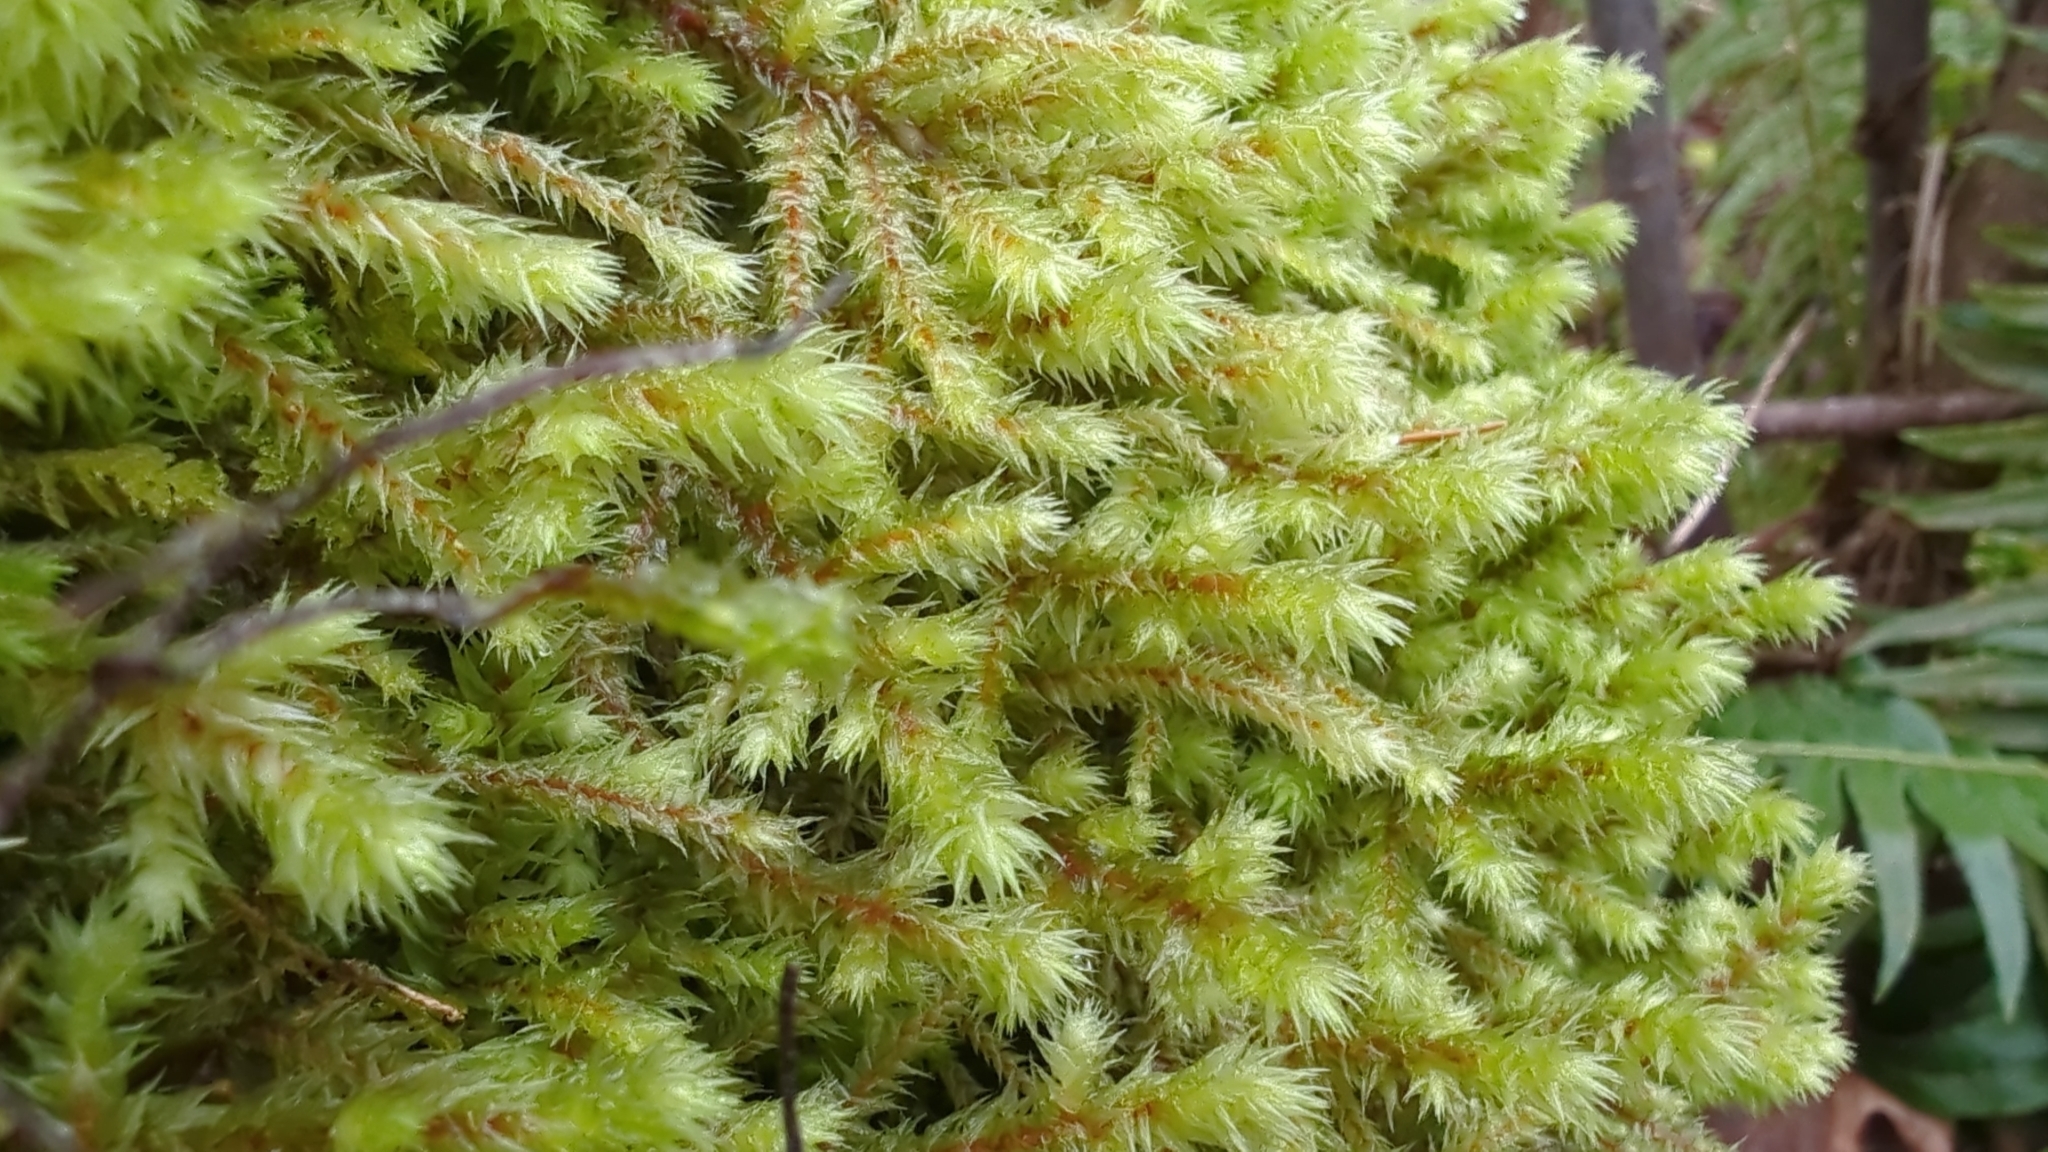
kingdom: Plantae
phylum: Bryophyta
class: Bryopsida
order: Hypnales
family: Hylocomiaceae
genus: Hylocomiadelphus
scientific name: Hylocomiadelphus triquetrus
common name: Rough goose neck moss
